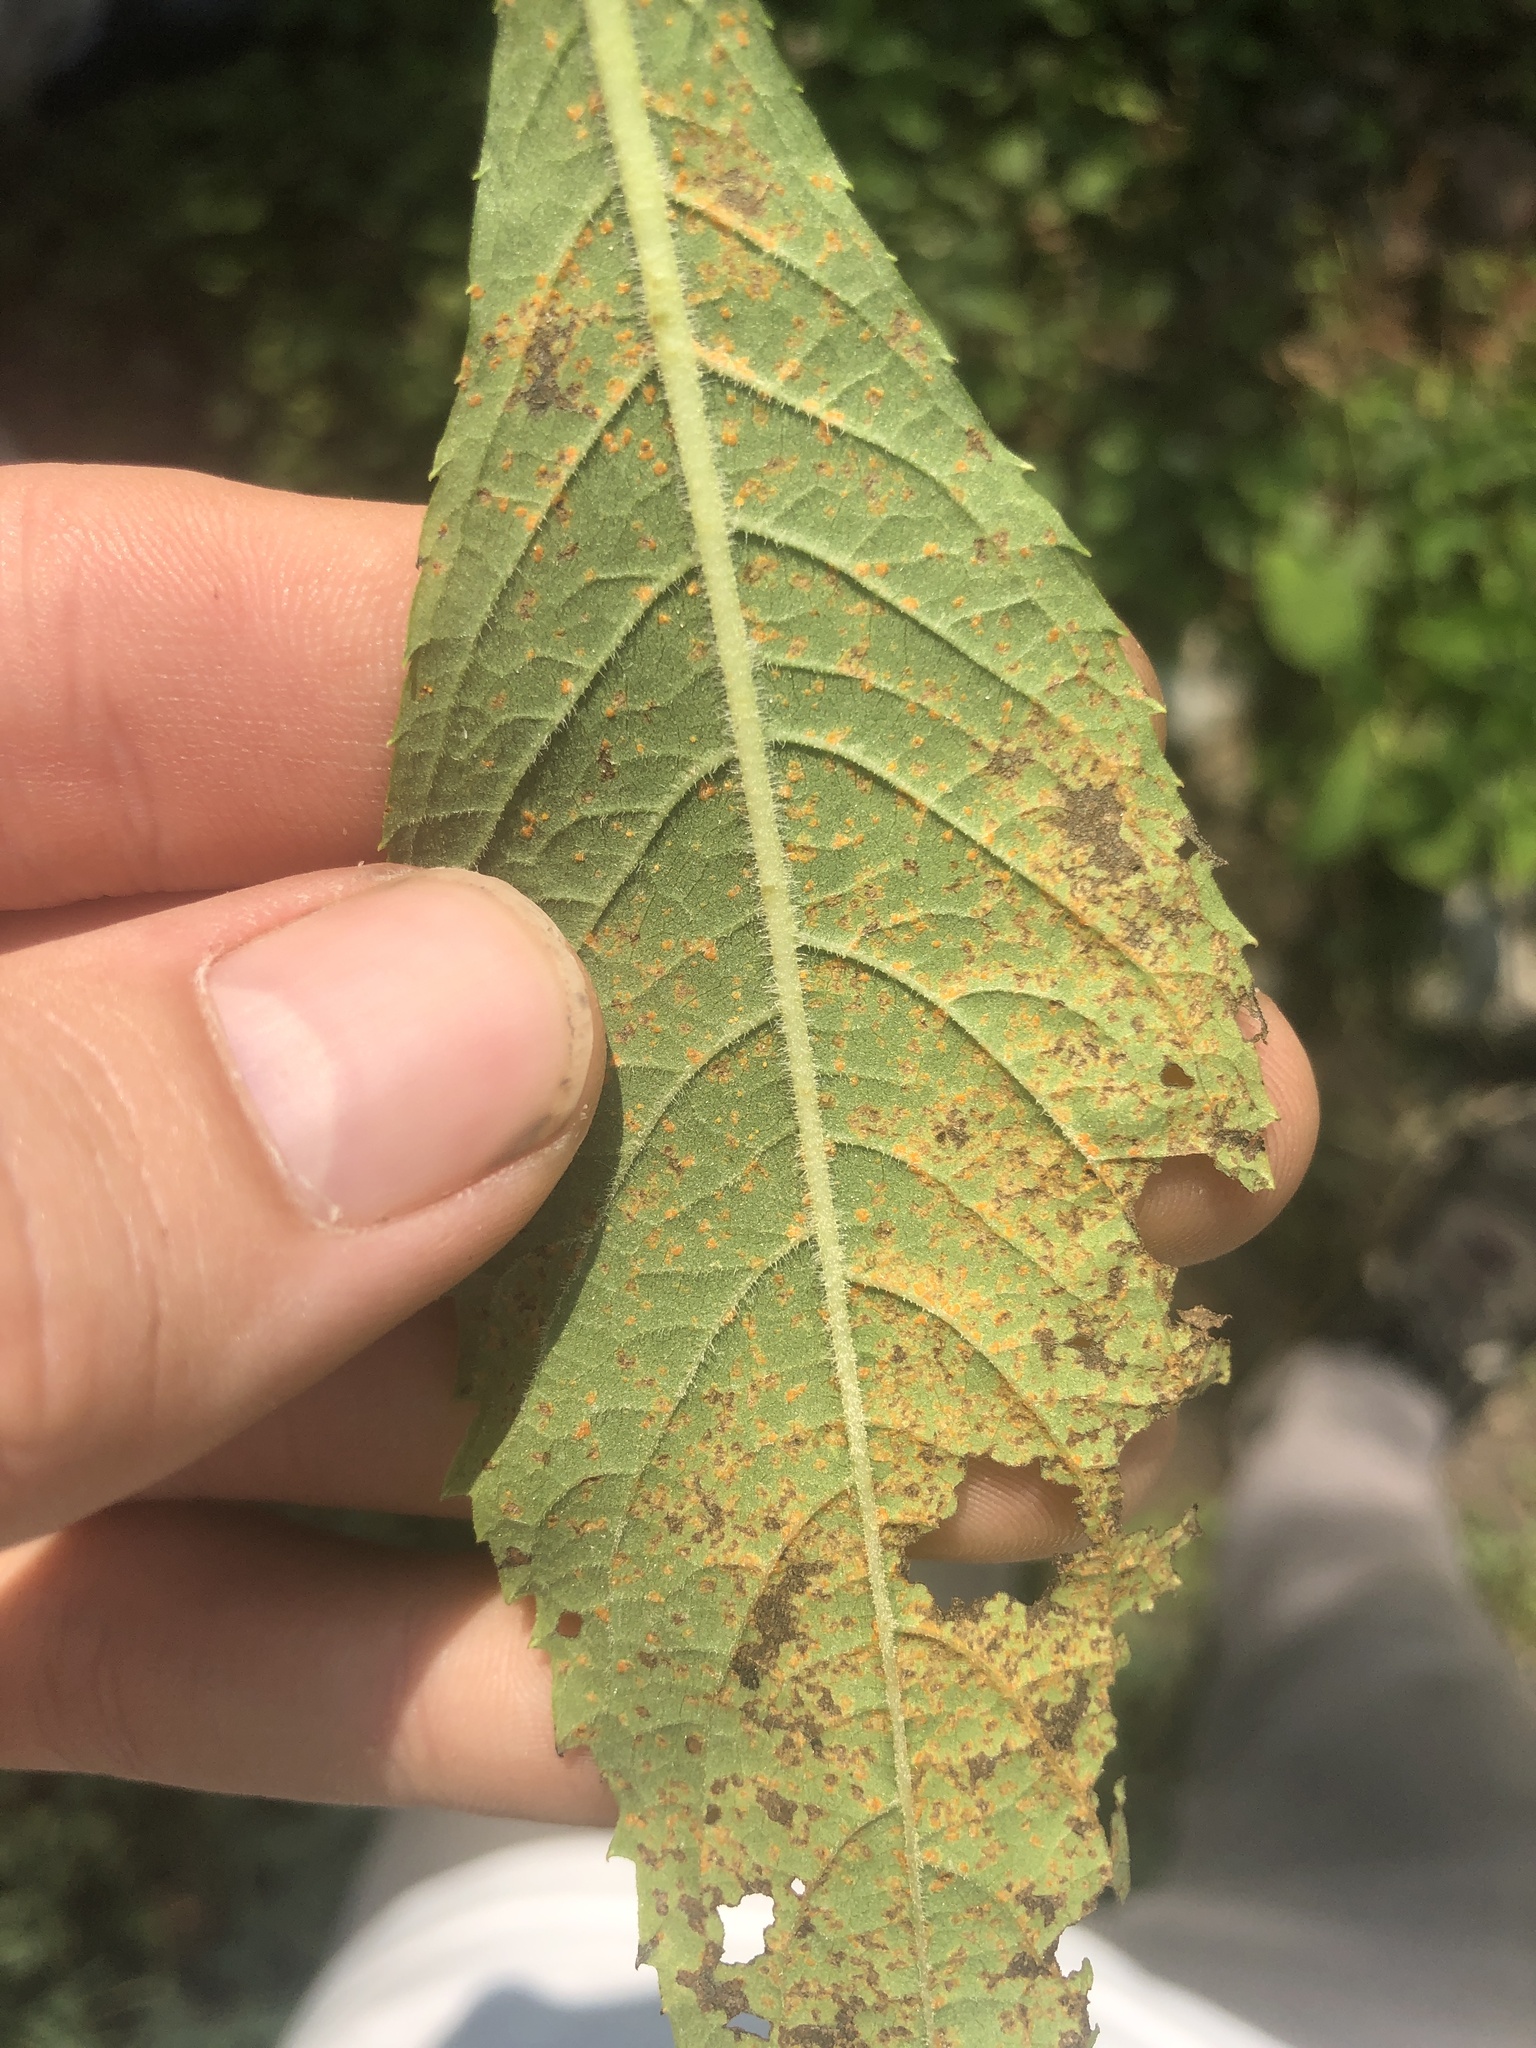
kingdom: Fungi
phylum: Basidiomycota
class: Pucciniomycetes
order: Pucciniales
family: Coleosporiaceae
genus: Coleosporium
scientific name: Coleosporium vernoniae
